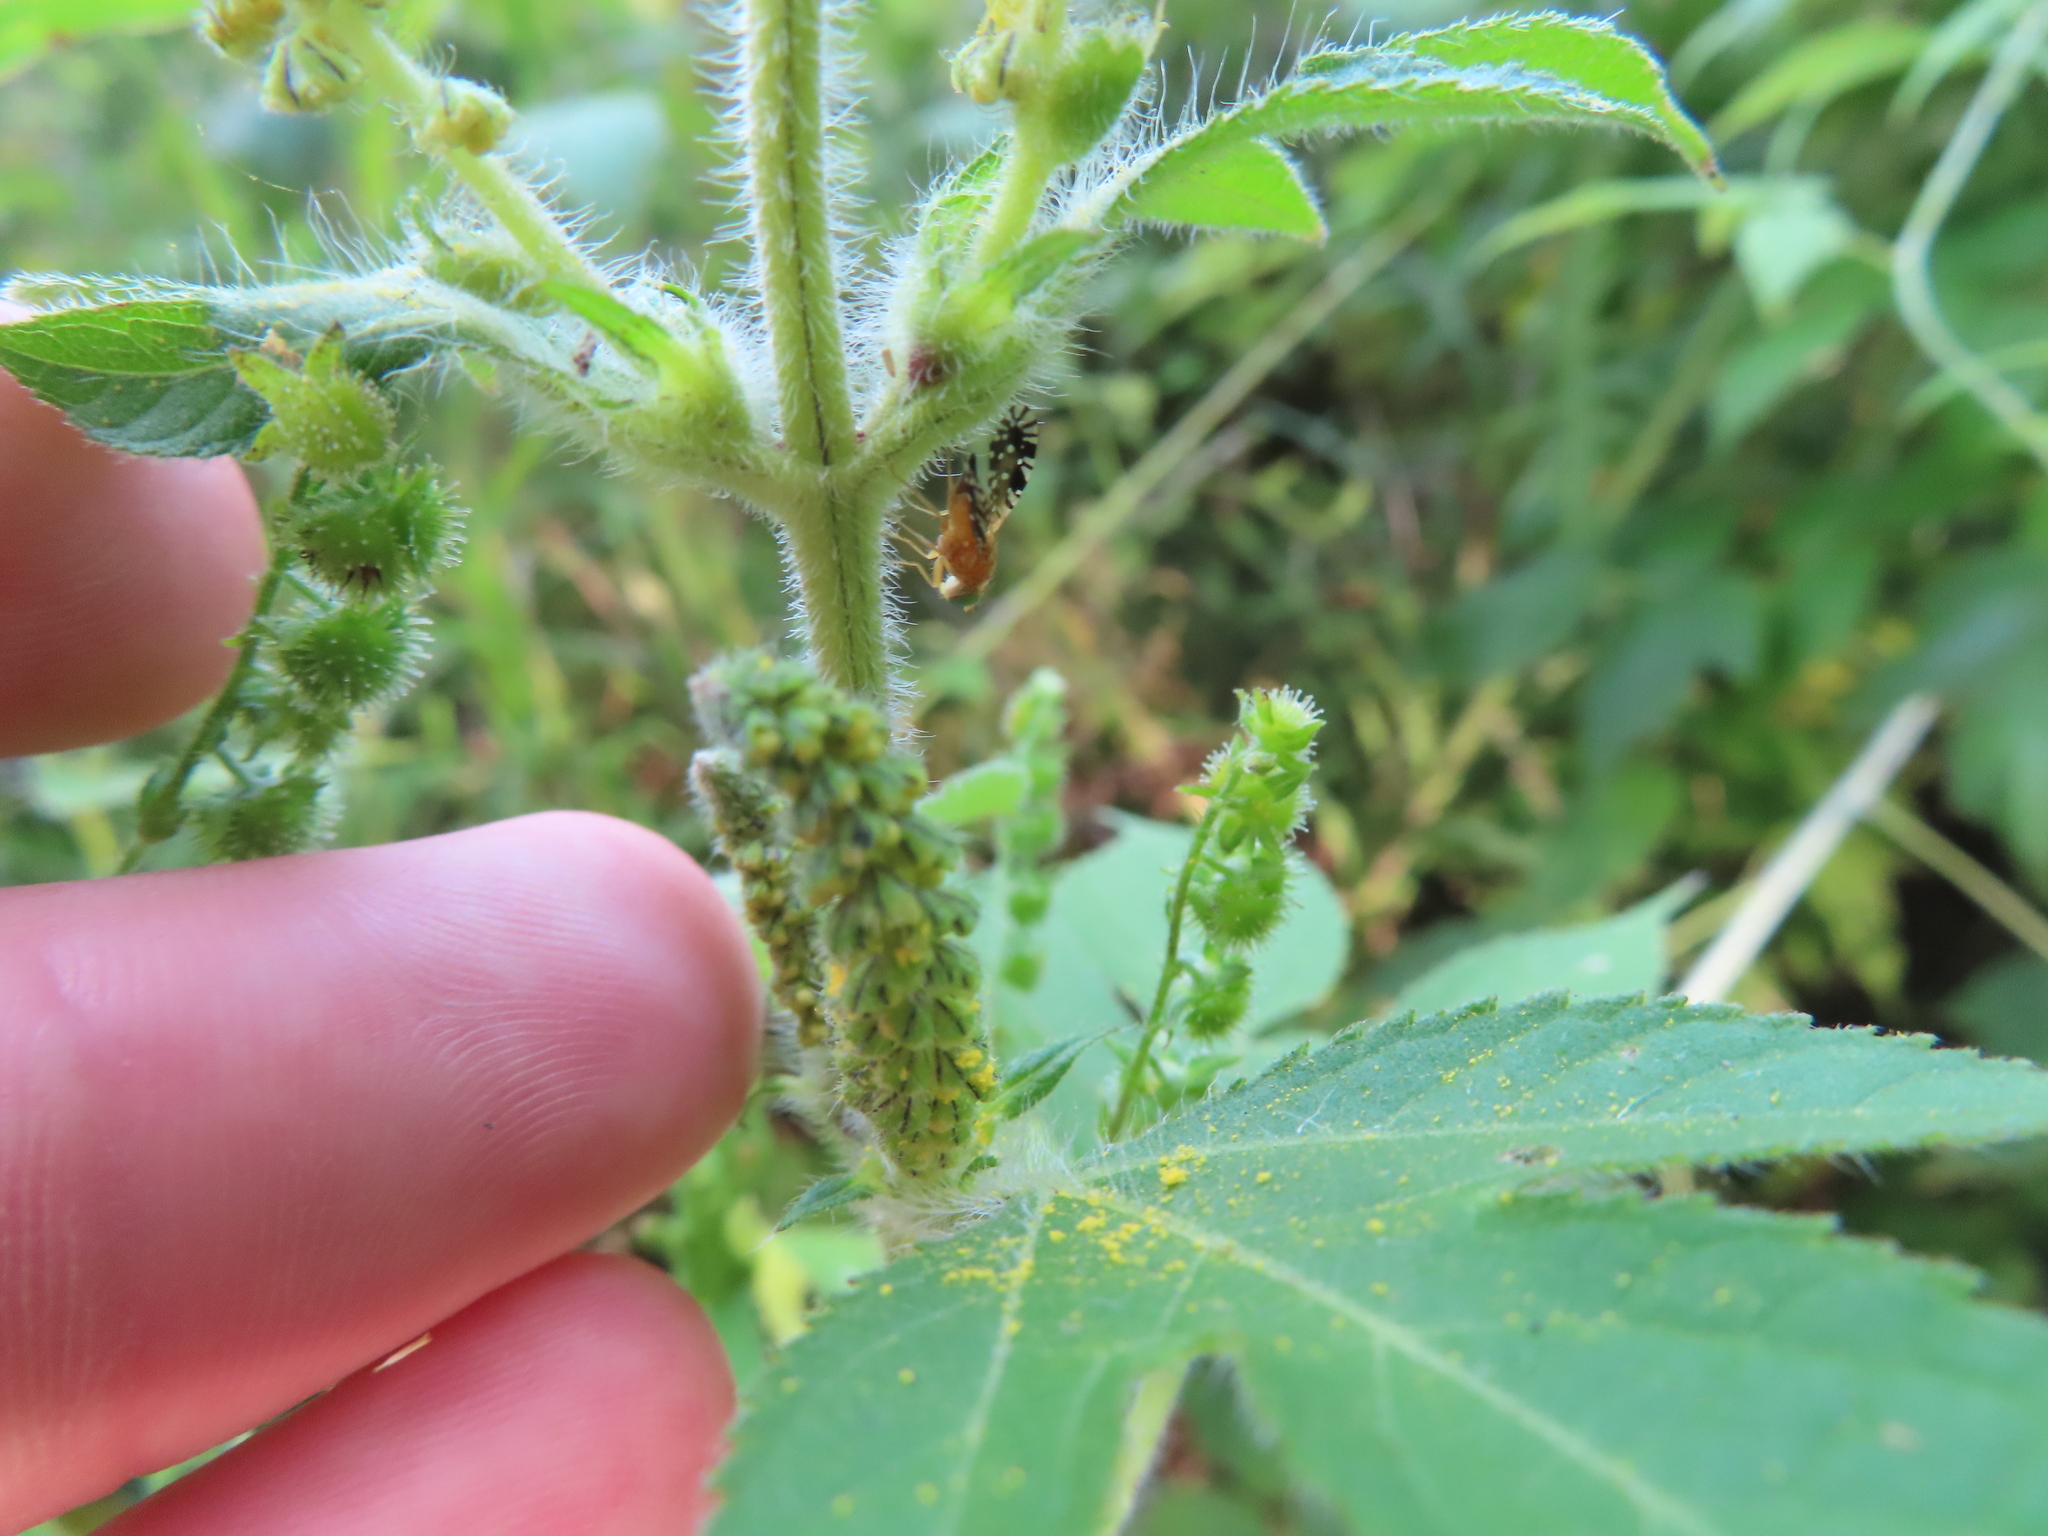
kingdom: Animalia
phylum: Arthropoda
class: Insecta
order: Diptera
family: Tephritidae
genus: Euaresta
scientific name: Euaresta festiva
